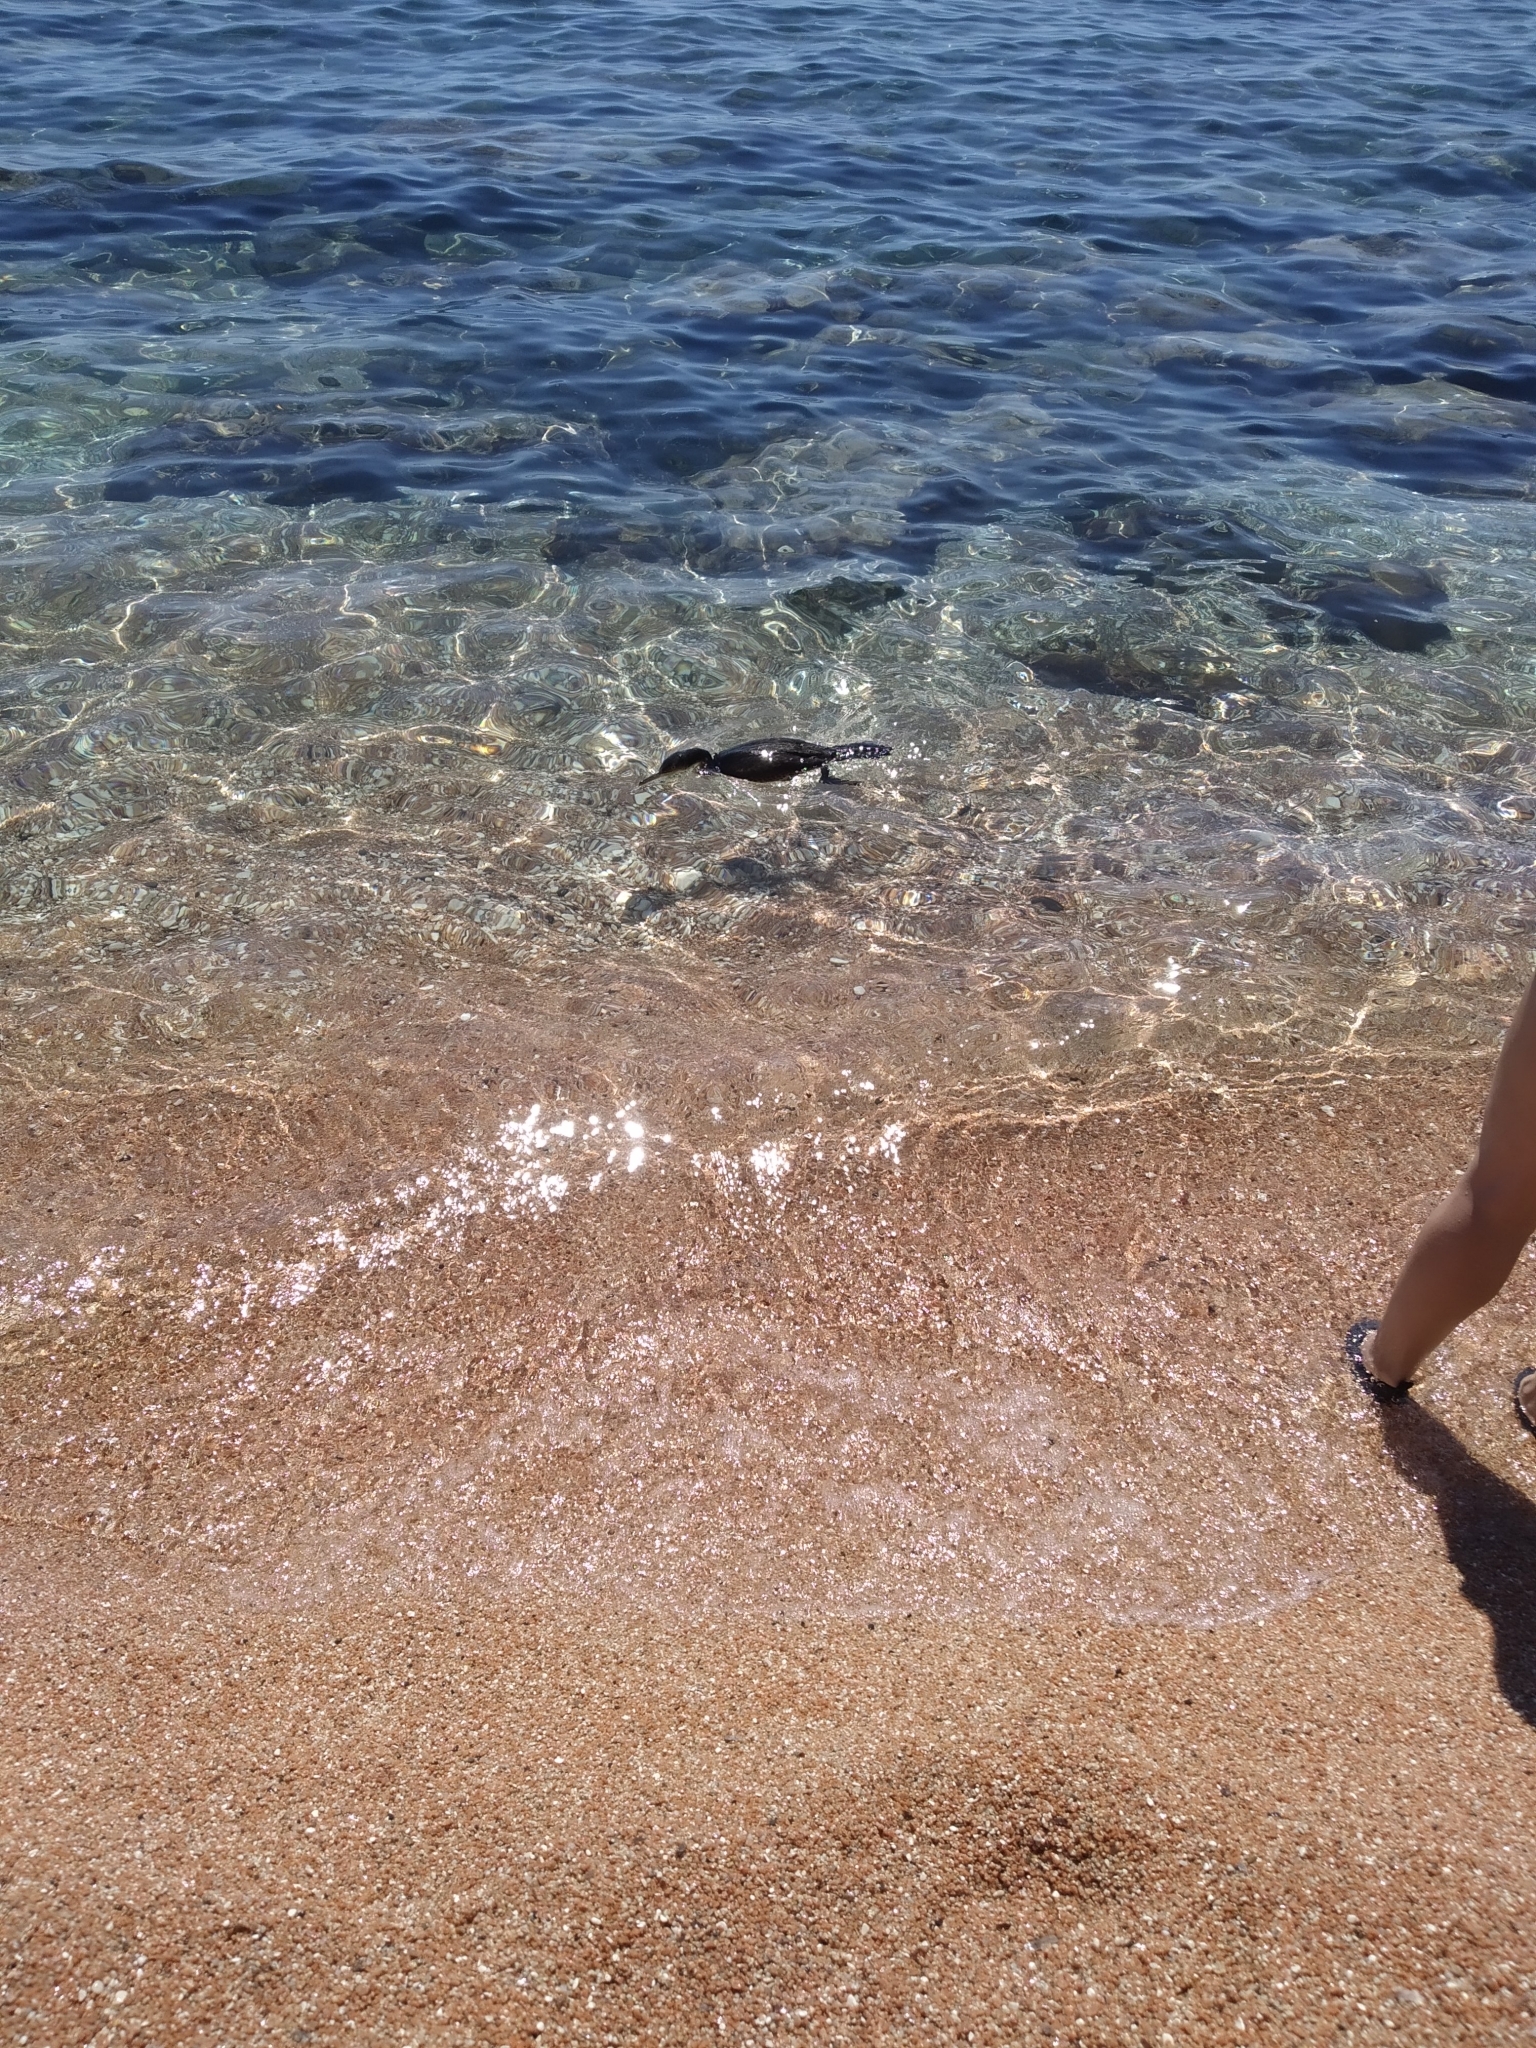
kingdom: Animalia
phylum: Chordata
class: Aves
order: Suliformes
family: Phalacrocoracidae
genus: Phalacrocorax
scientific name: Phalacrocorax aristotelis
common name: European shag
